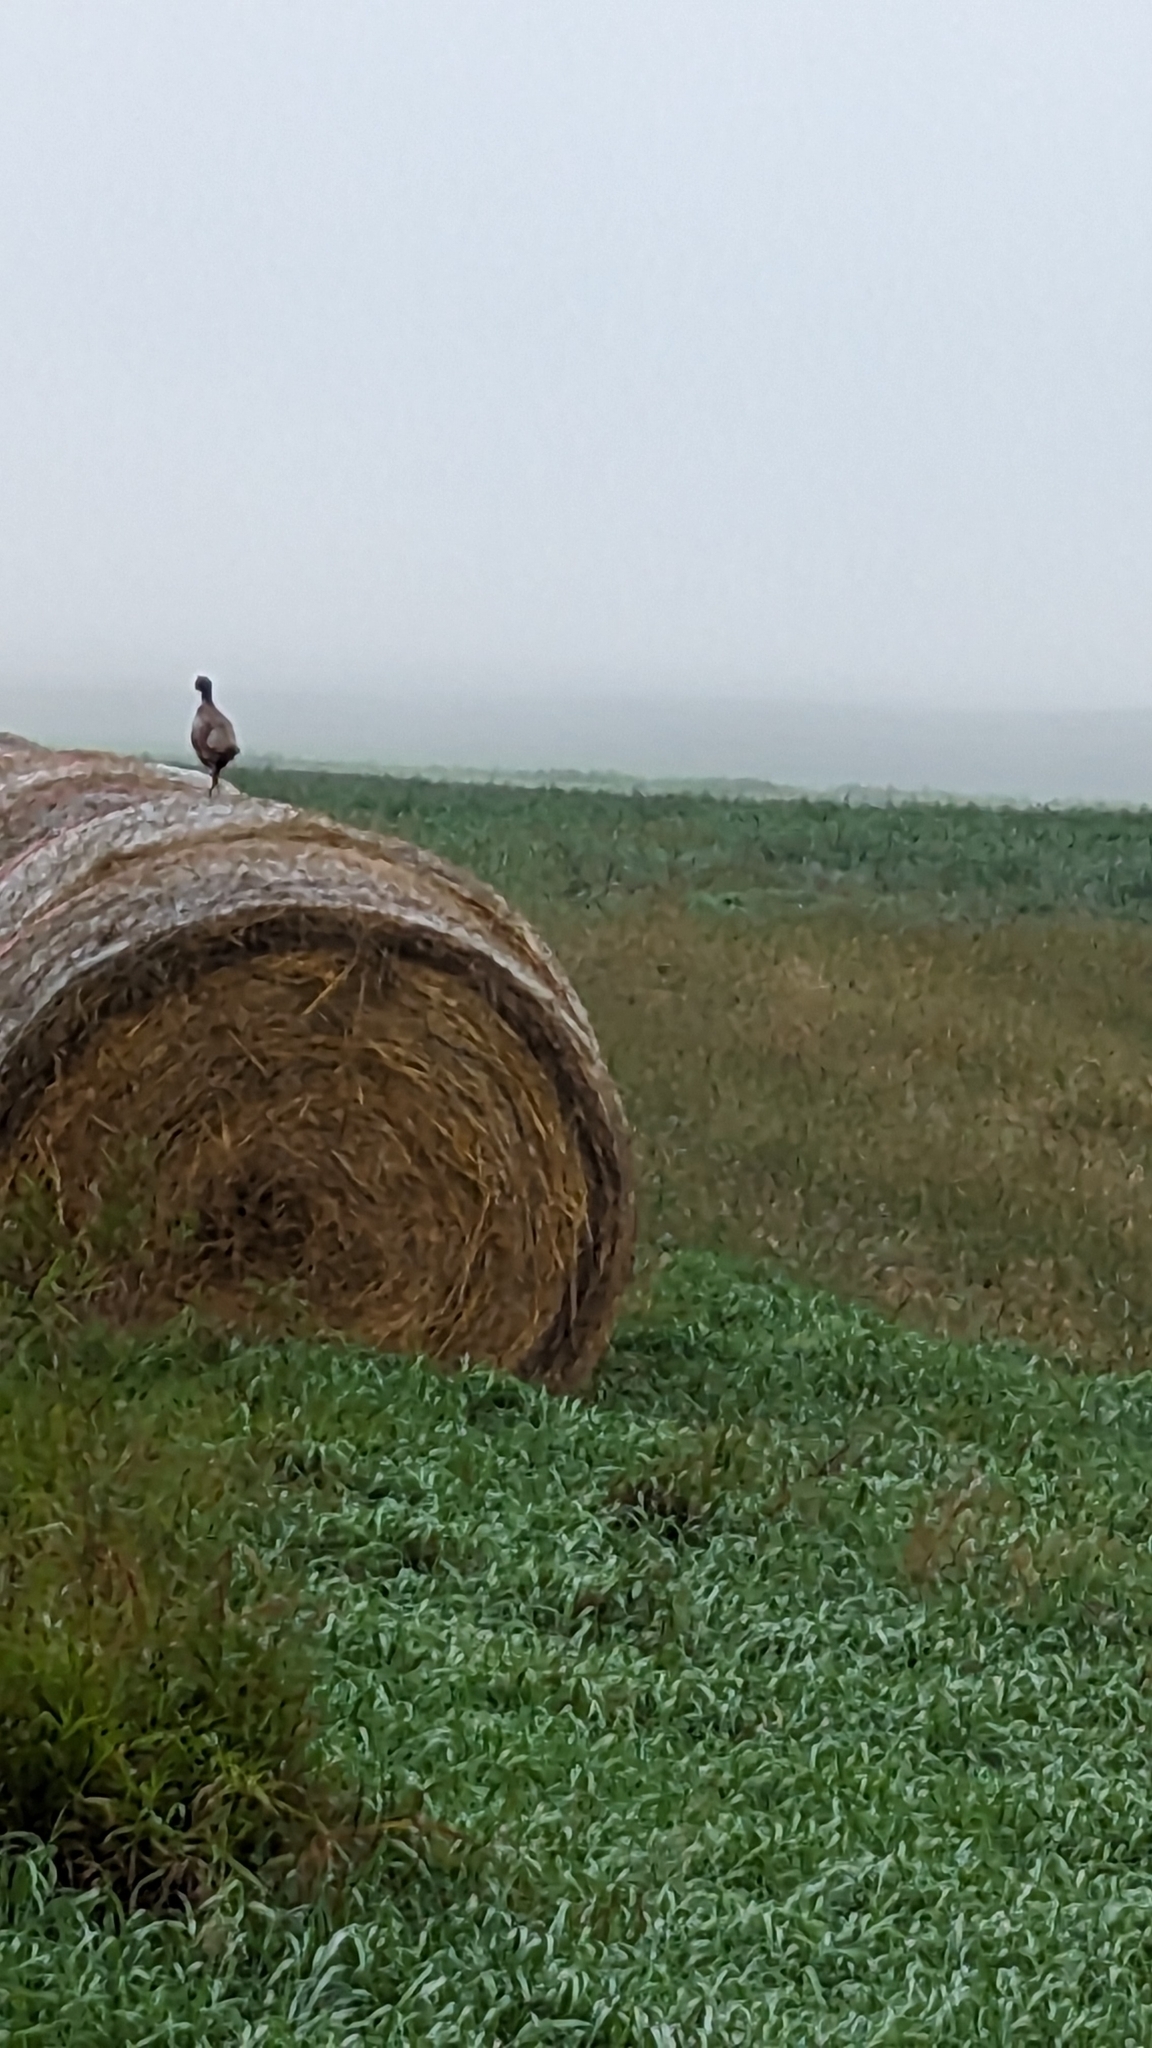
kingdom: Animalia
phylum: Chordata
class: Aves
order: Galliformes
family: Phasianidae
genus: Phasianus
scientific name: Phasianus colchicus
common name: Common pheasant
